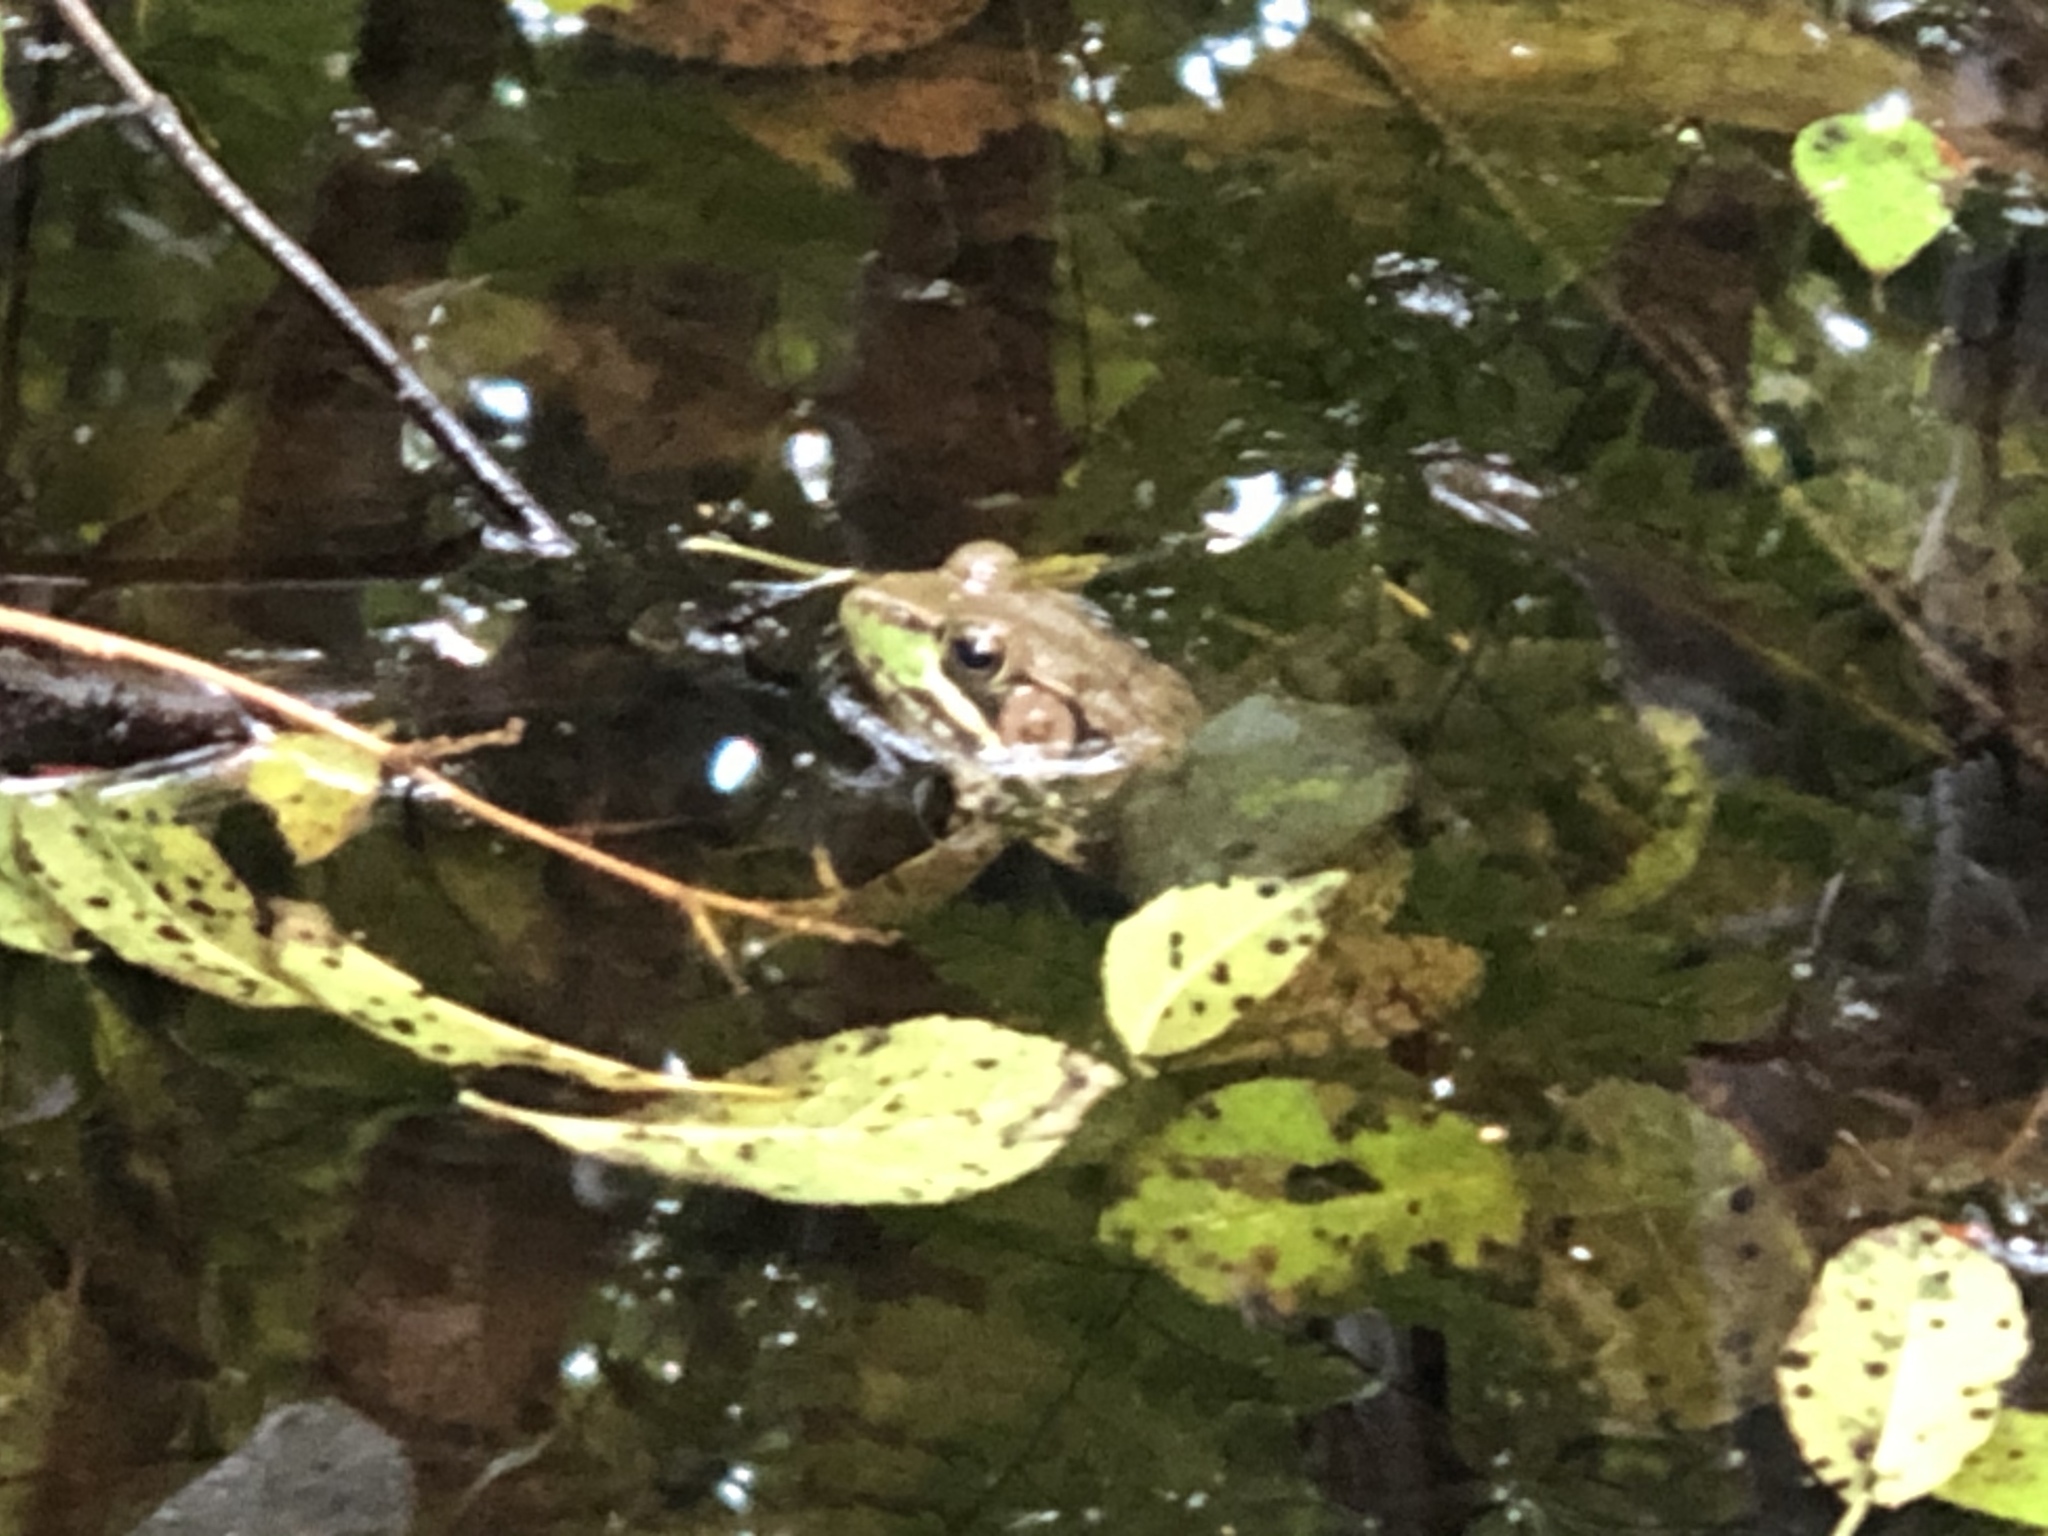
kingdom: Animalia
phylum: Chordata
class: Amphibia
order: Anura
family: Ranidae
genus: Lithobates
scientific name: Lithobates clamitans
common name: Green frog
